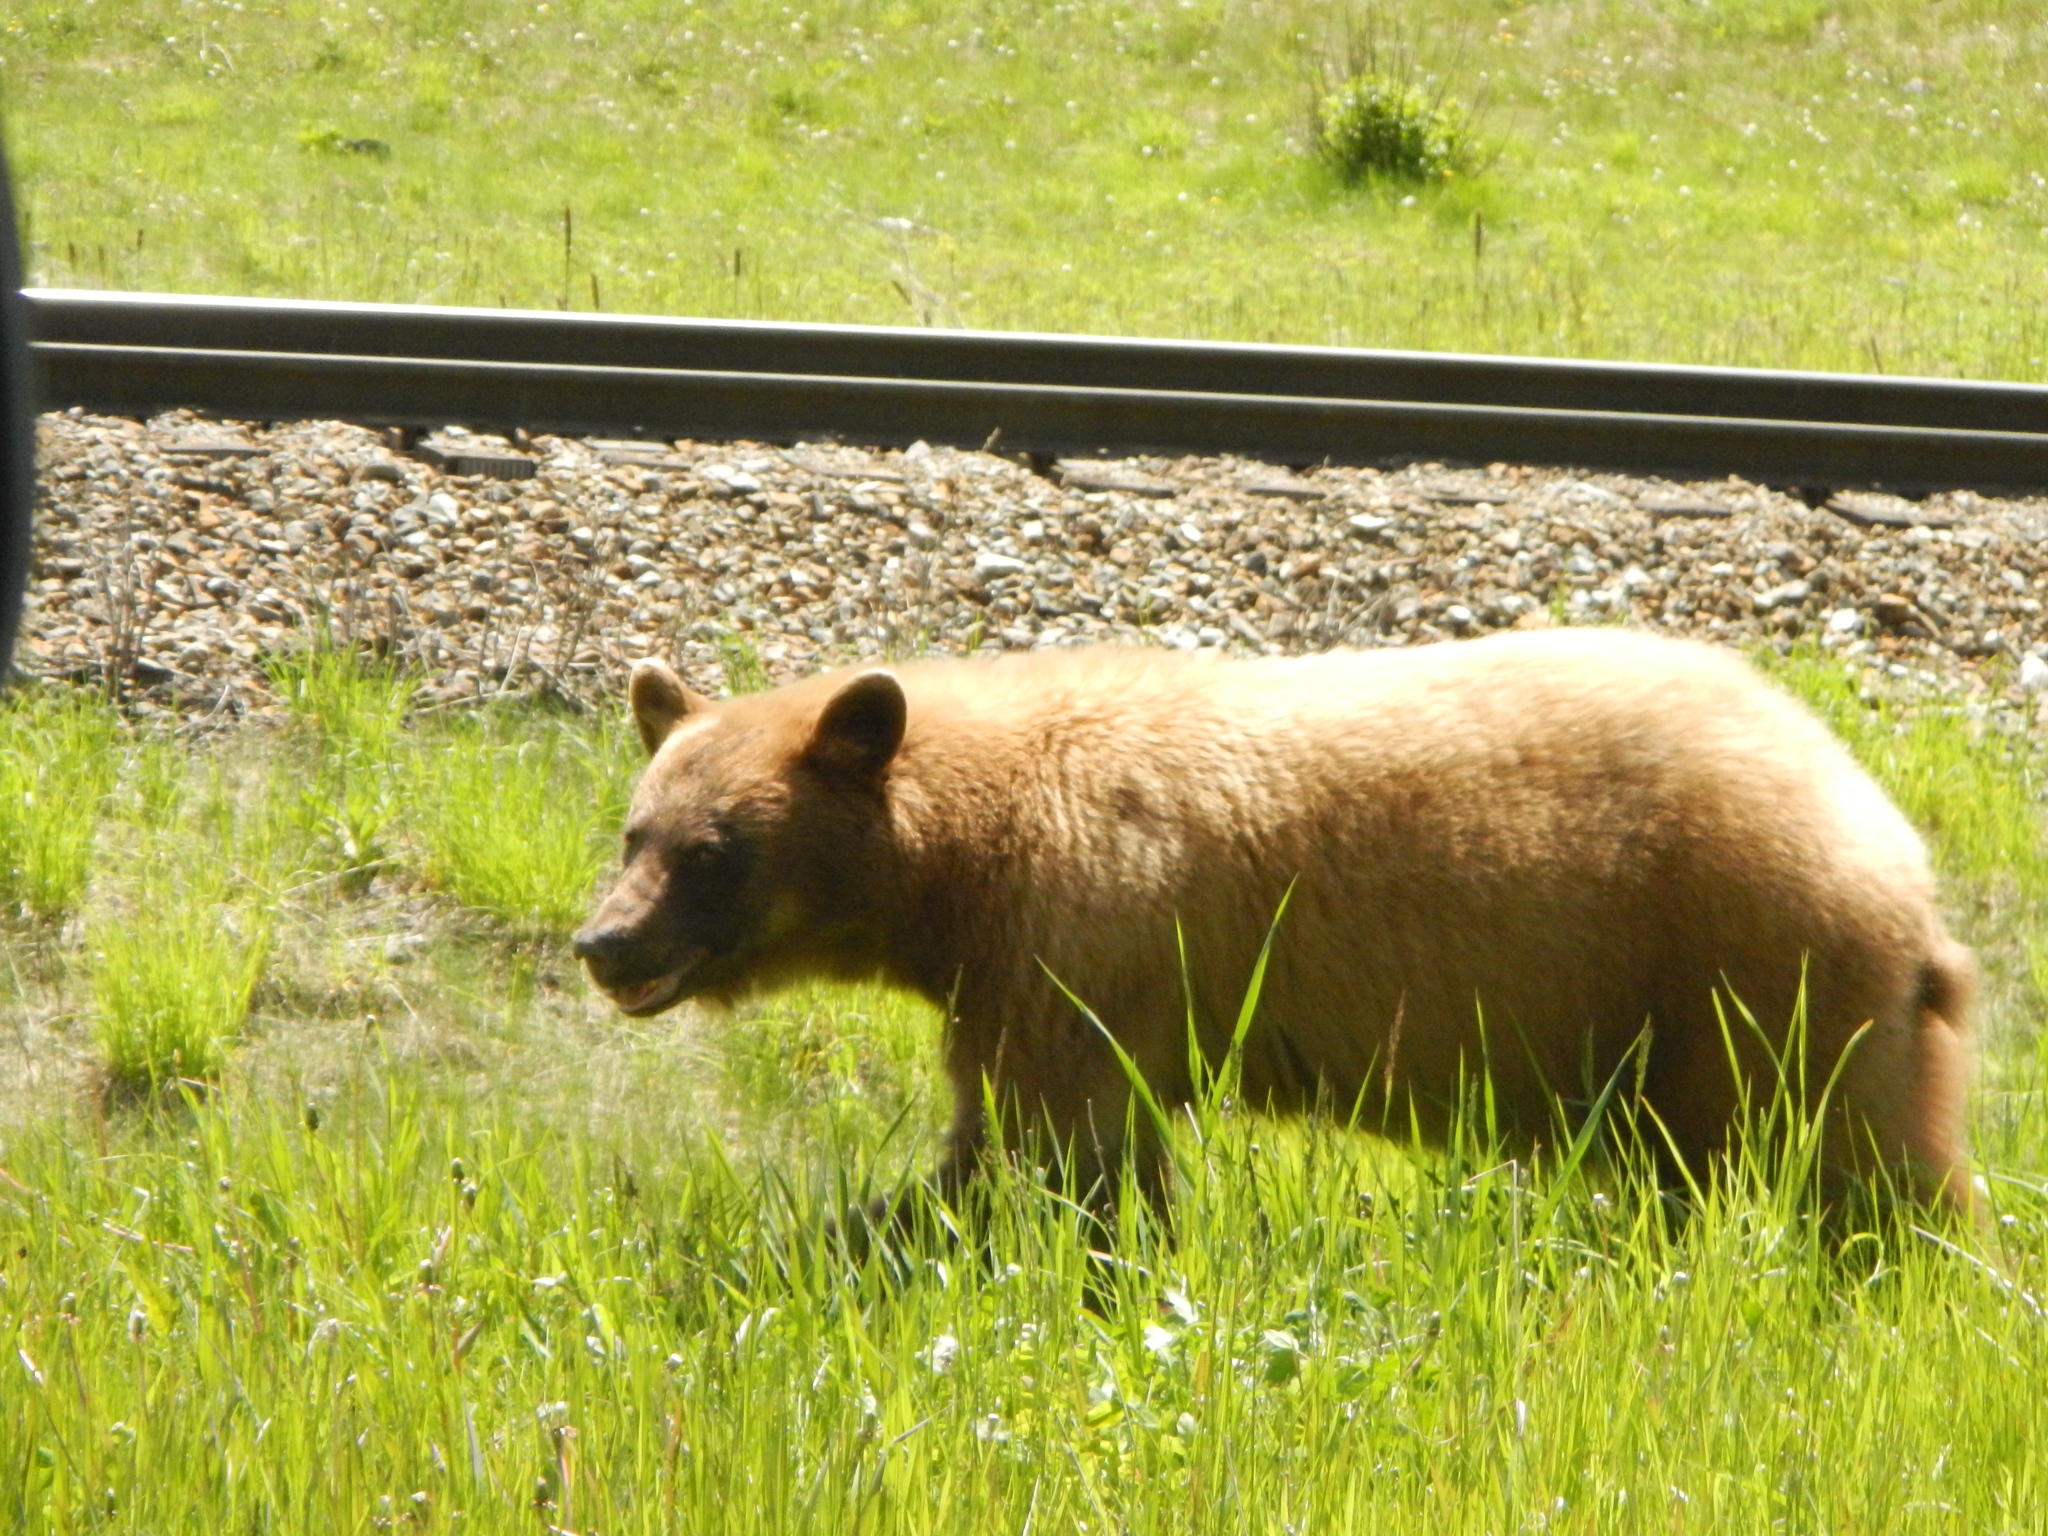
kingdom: Animalia
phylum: Chordata
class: Mammalia
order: Carnivora
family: Ursidae
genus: Ursus
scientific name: Ursus americanus
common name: American black bear
